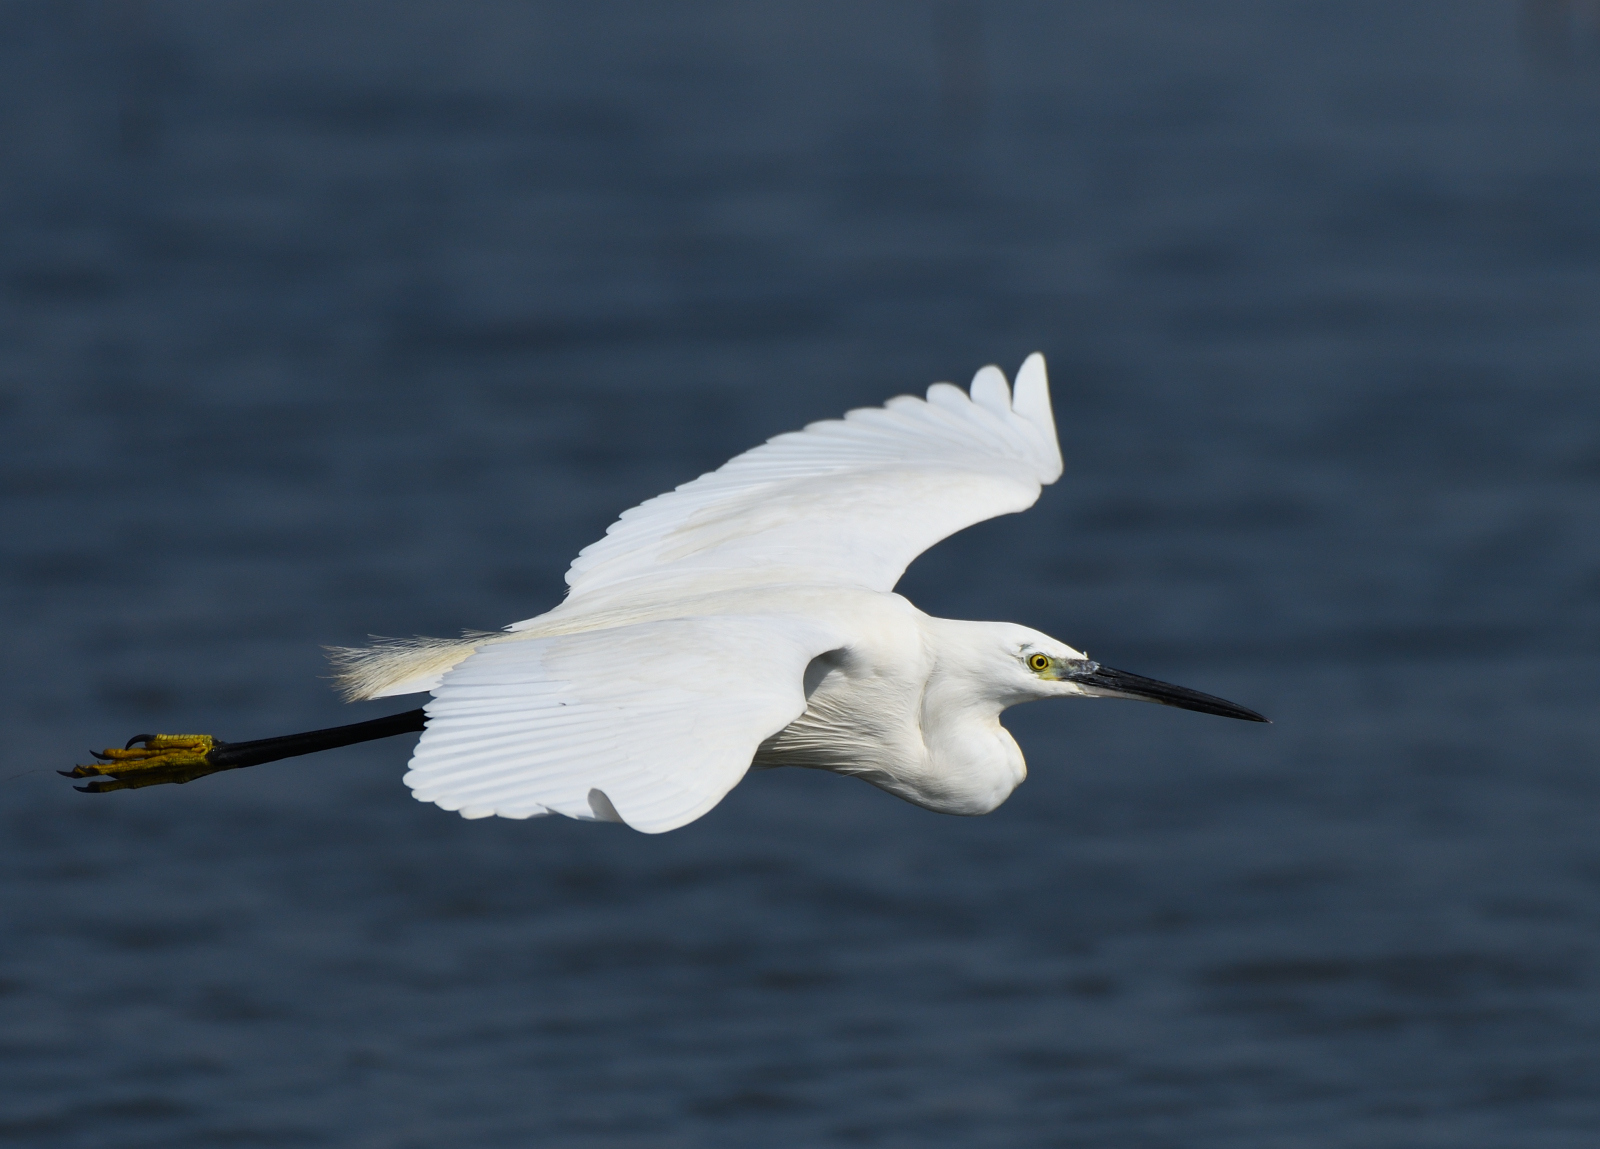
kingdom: Animalia
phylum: Chordata
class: Aves
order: Pelecaniformes
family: Ardeidae
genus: Egretta
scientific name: Egretta garzetta
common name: Little egret
